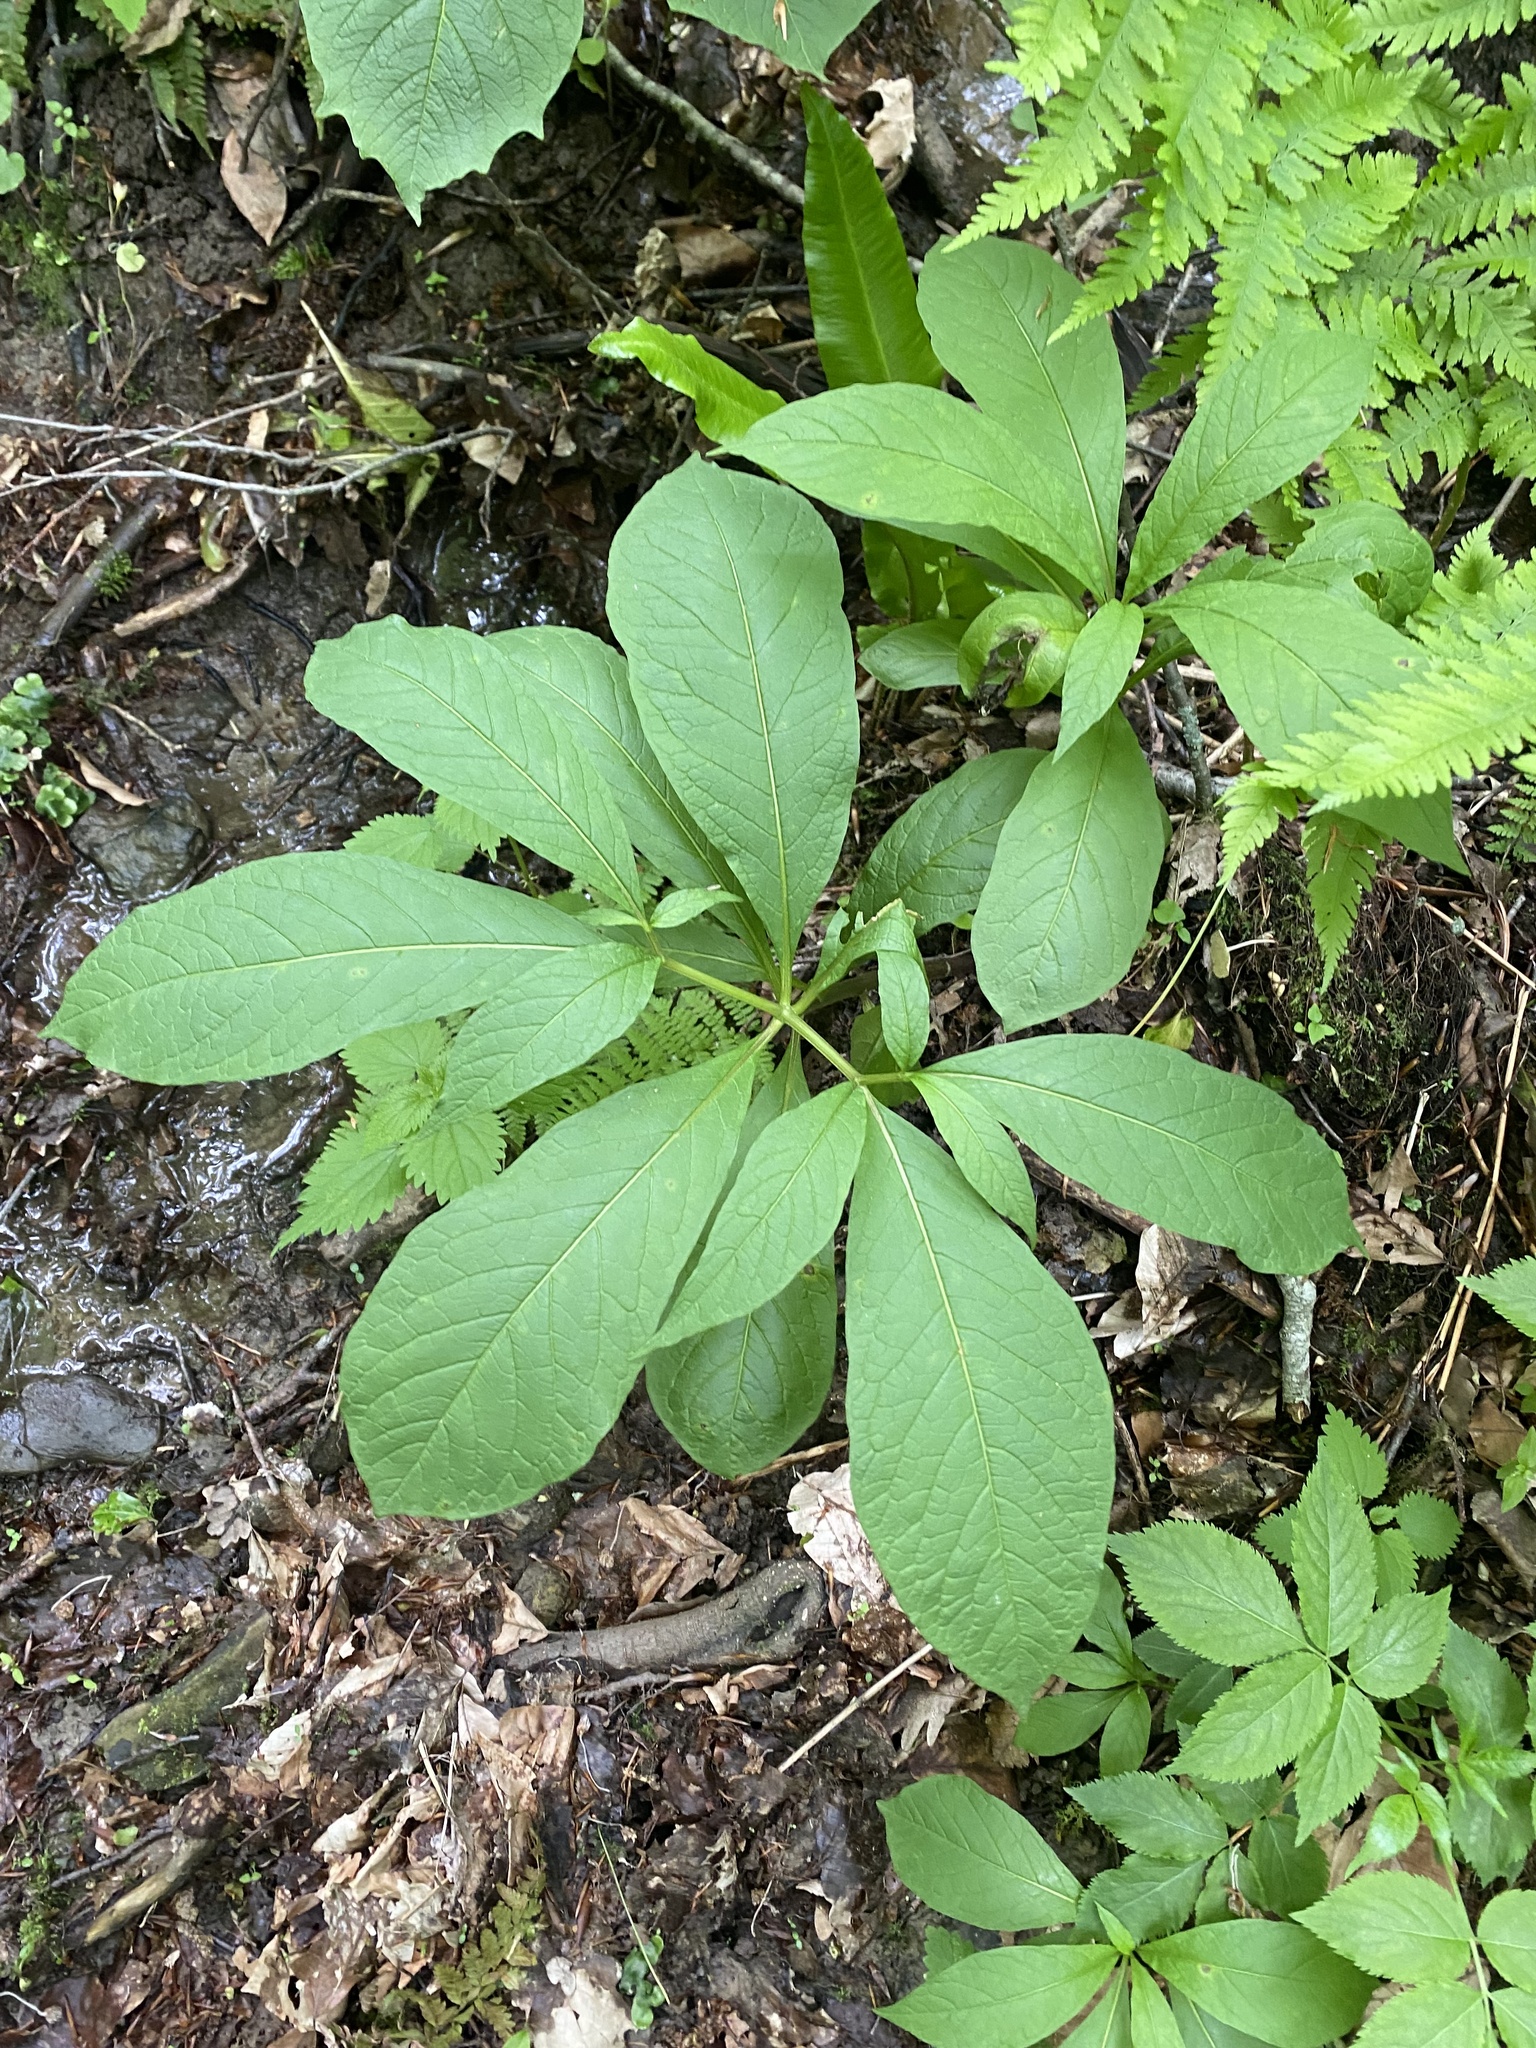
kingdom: Plantae
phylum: Tracheophyta
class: Magnoliopsida
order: Solanales
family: Solanaceae
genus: Scopolia
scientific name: Scopolia carniolica
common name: Scopolia
